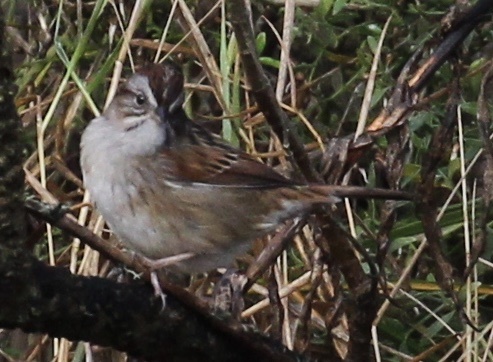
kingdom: Animalia
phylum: Chordata
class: Aves
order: Passeriformes
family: Passerellidae
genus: Melospiza
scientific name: Melospiza georgiana
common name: Swamp sparrow
